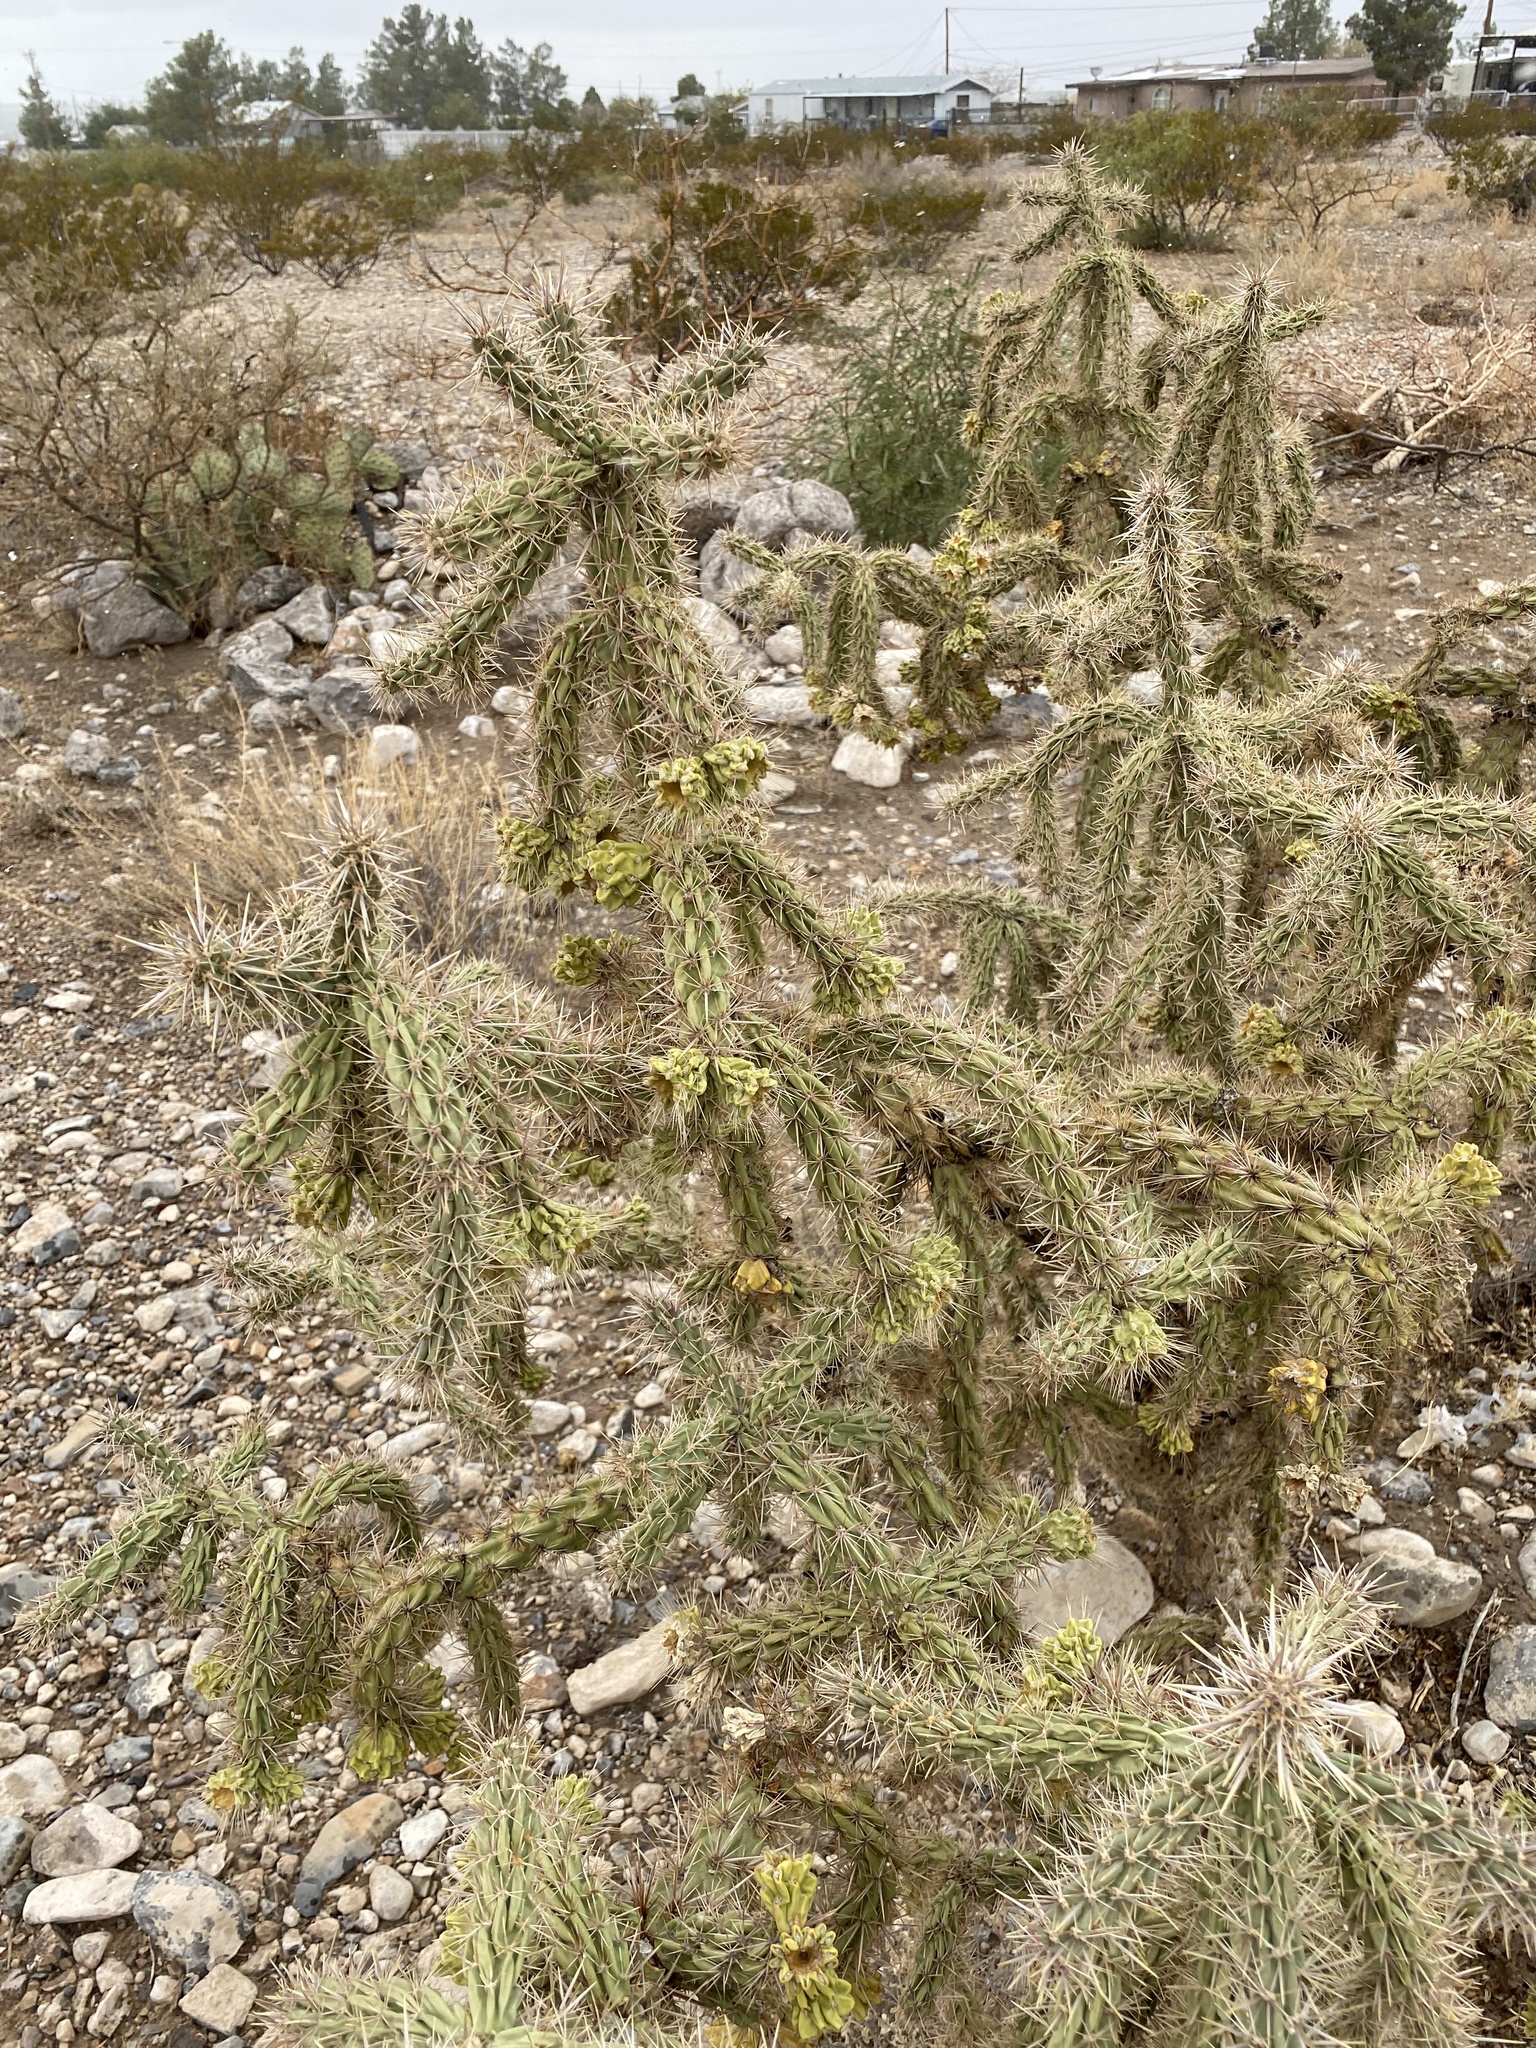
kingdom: Plantae
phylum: Tracheophyta
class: Magnoliopsida
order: Caryophyllales
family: Cactaceae
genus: Cylindropuntia
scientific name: Cylindropuntia imbricata
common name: Candelabrum cactus
